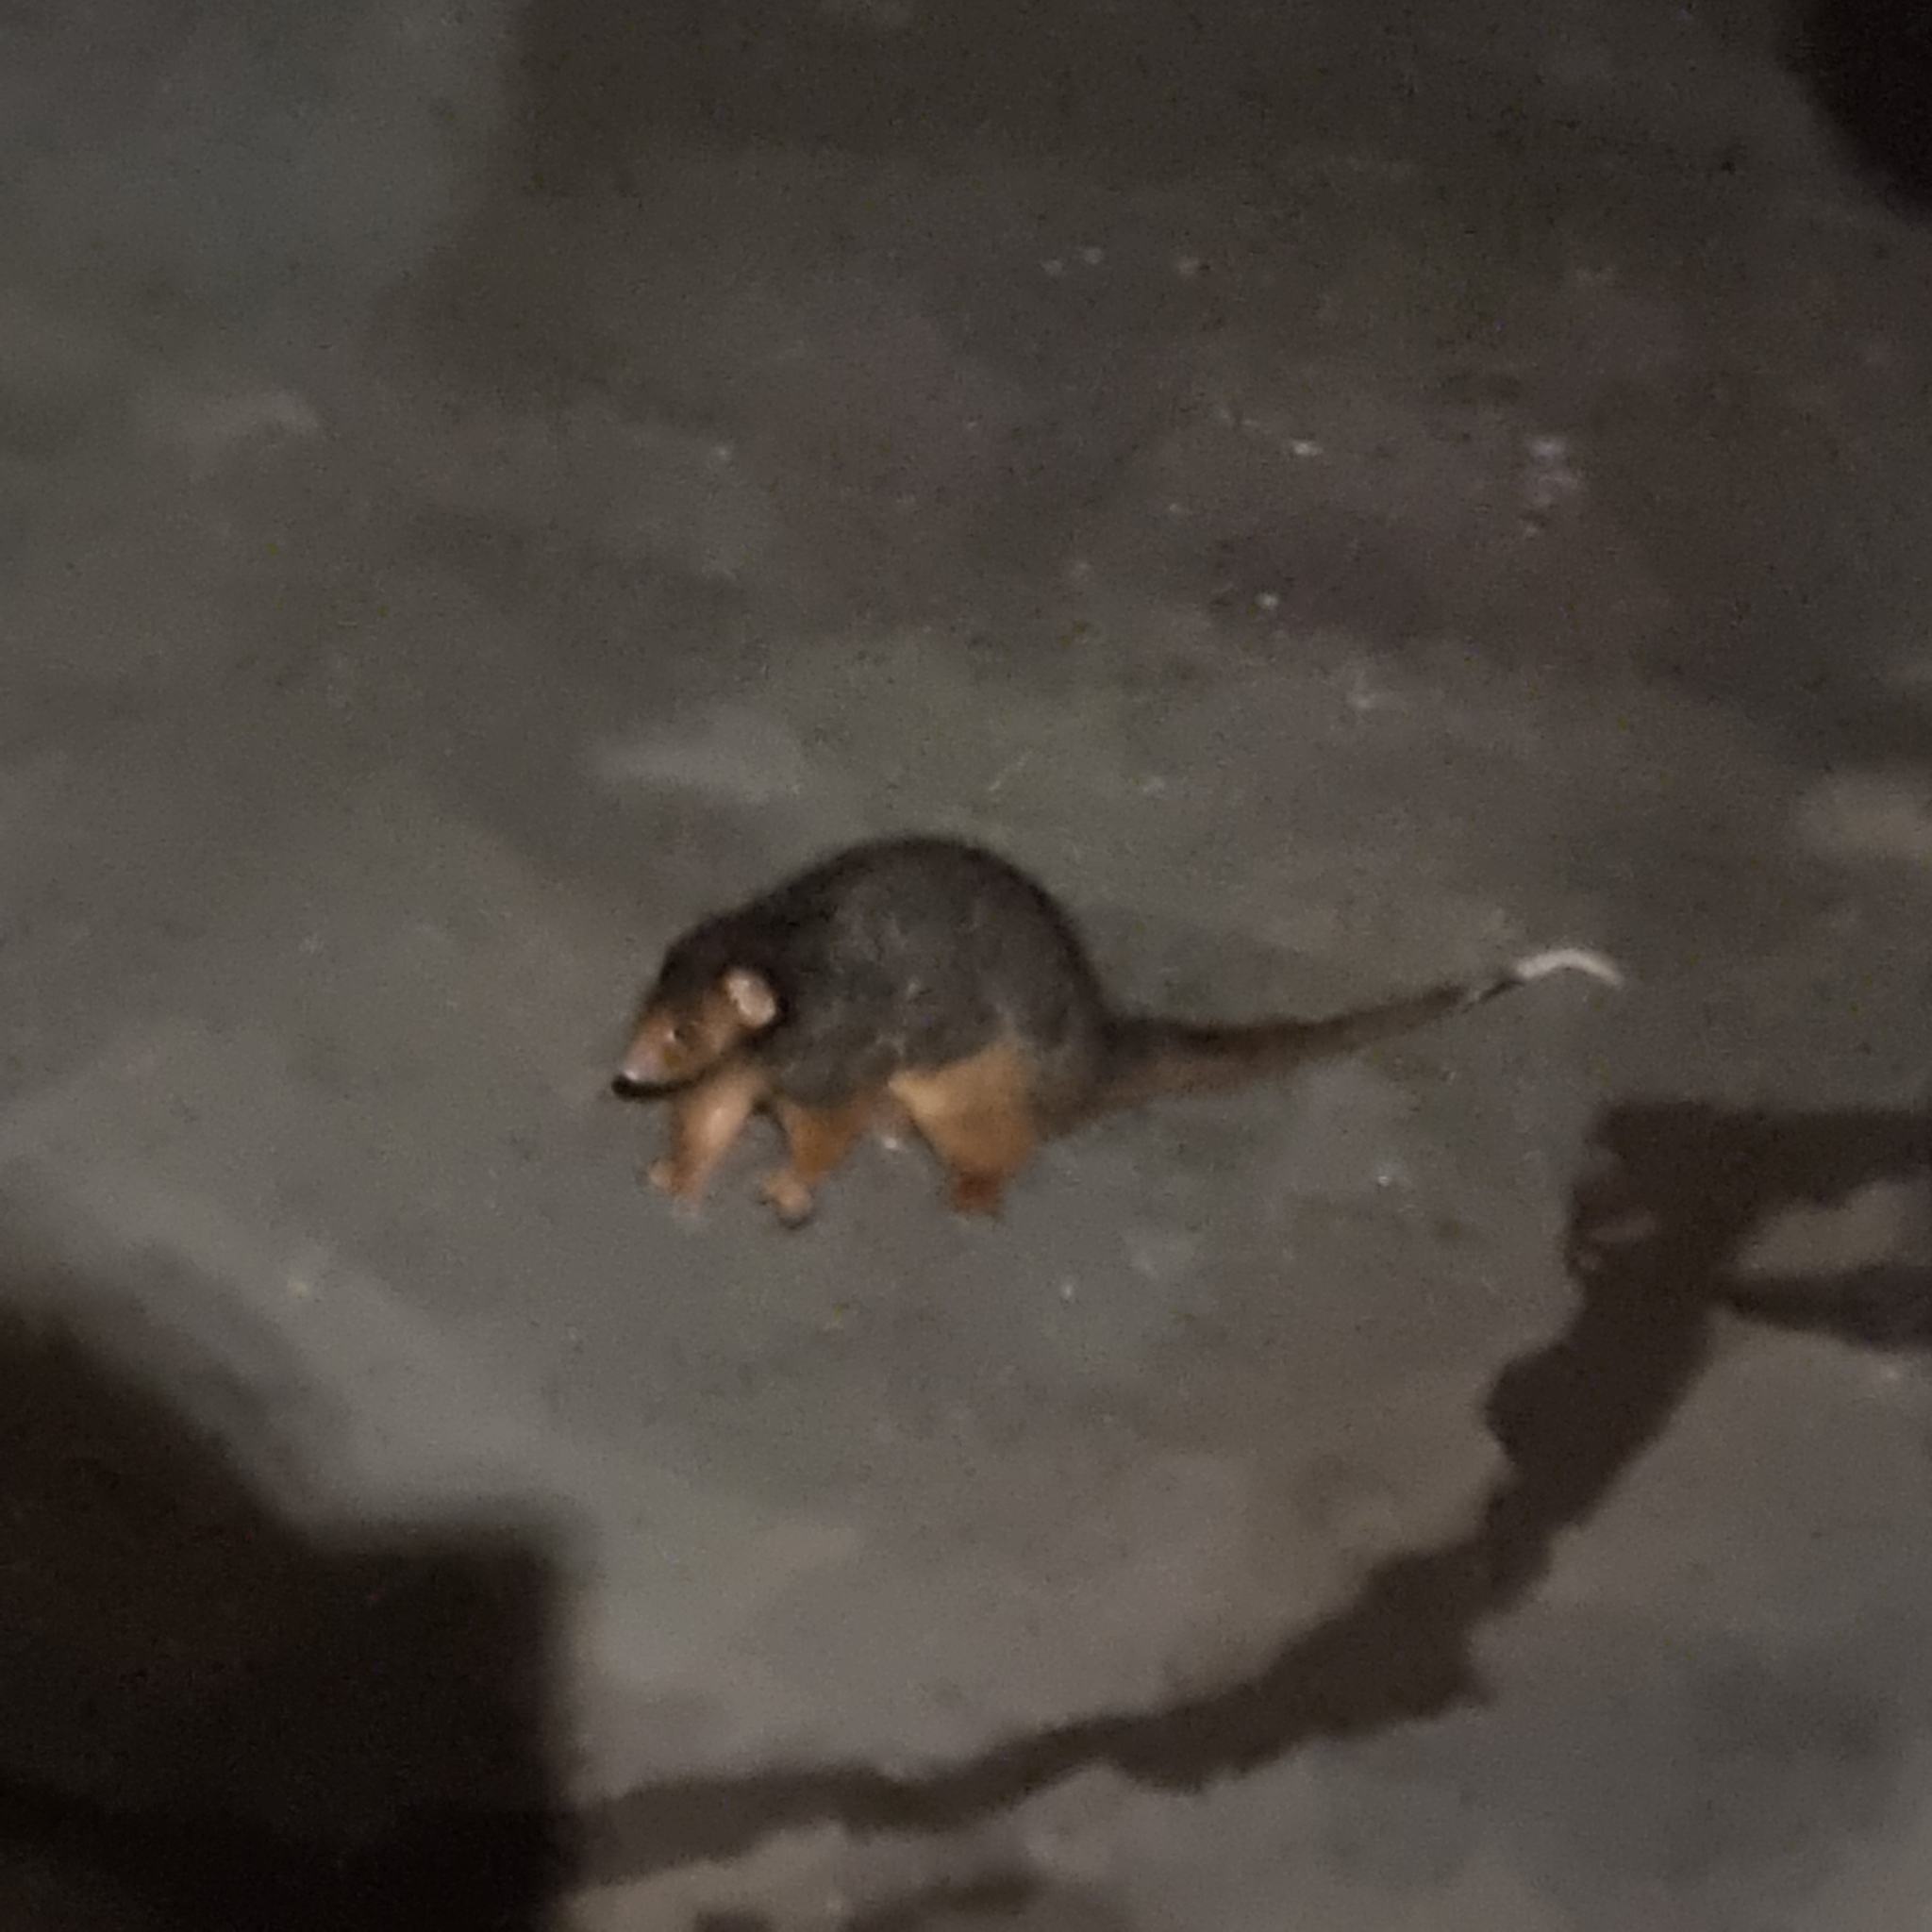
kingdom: Animalia
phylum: Chordata
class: Mammalia
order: Diprotodontia
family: Pseudocheiridae
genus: Pseudocheirus
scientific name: Pseudocheirus peregrinus
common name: Common ringtail possum
